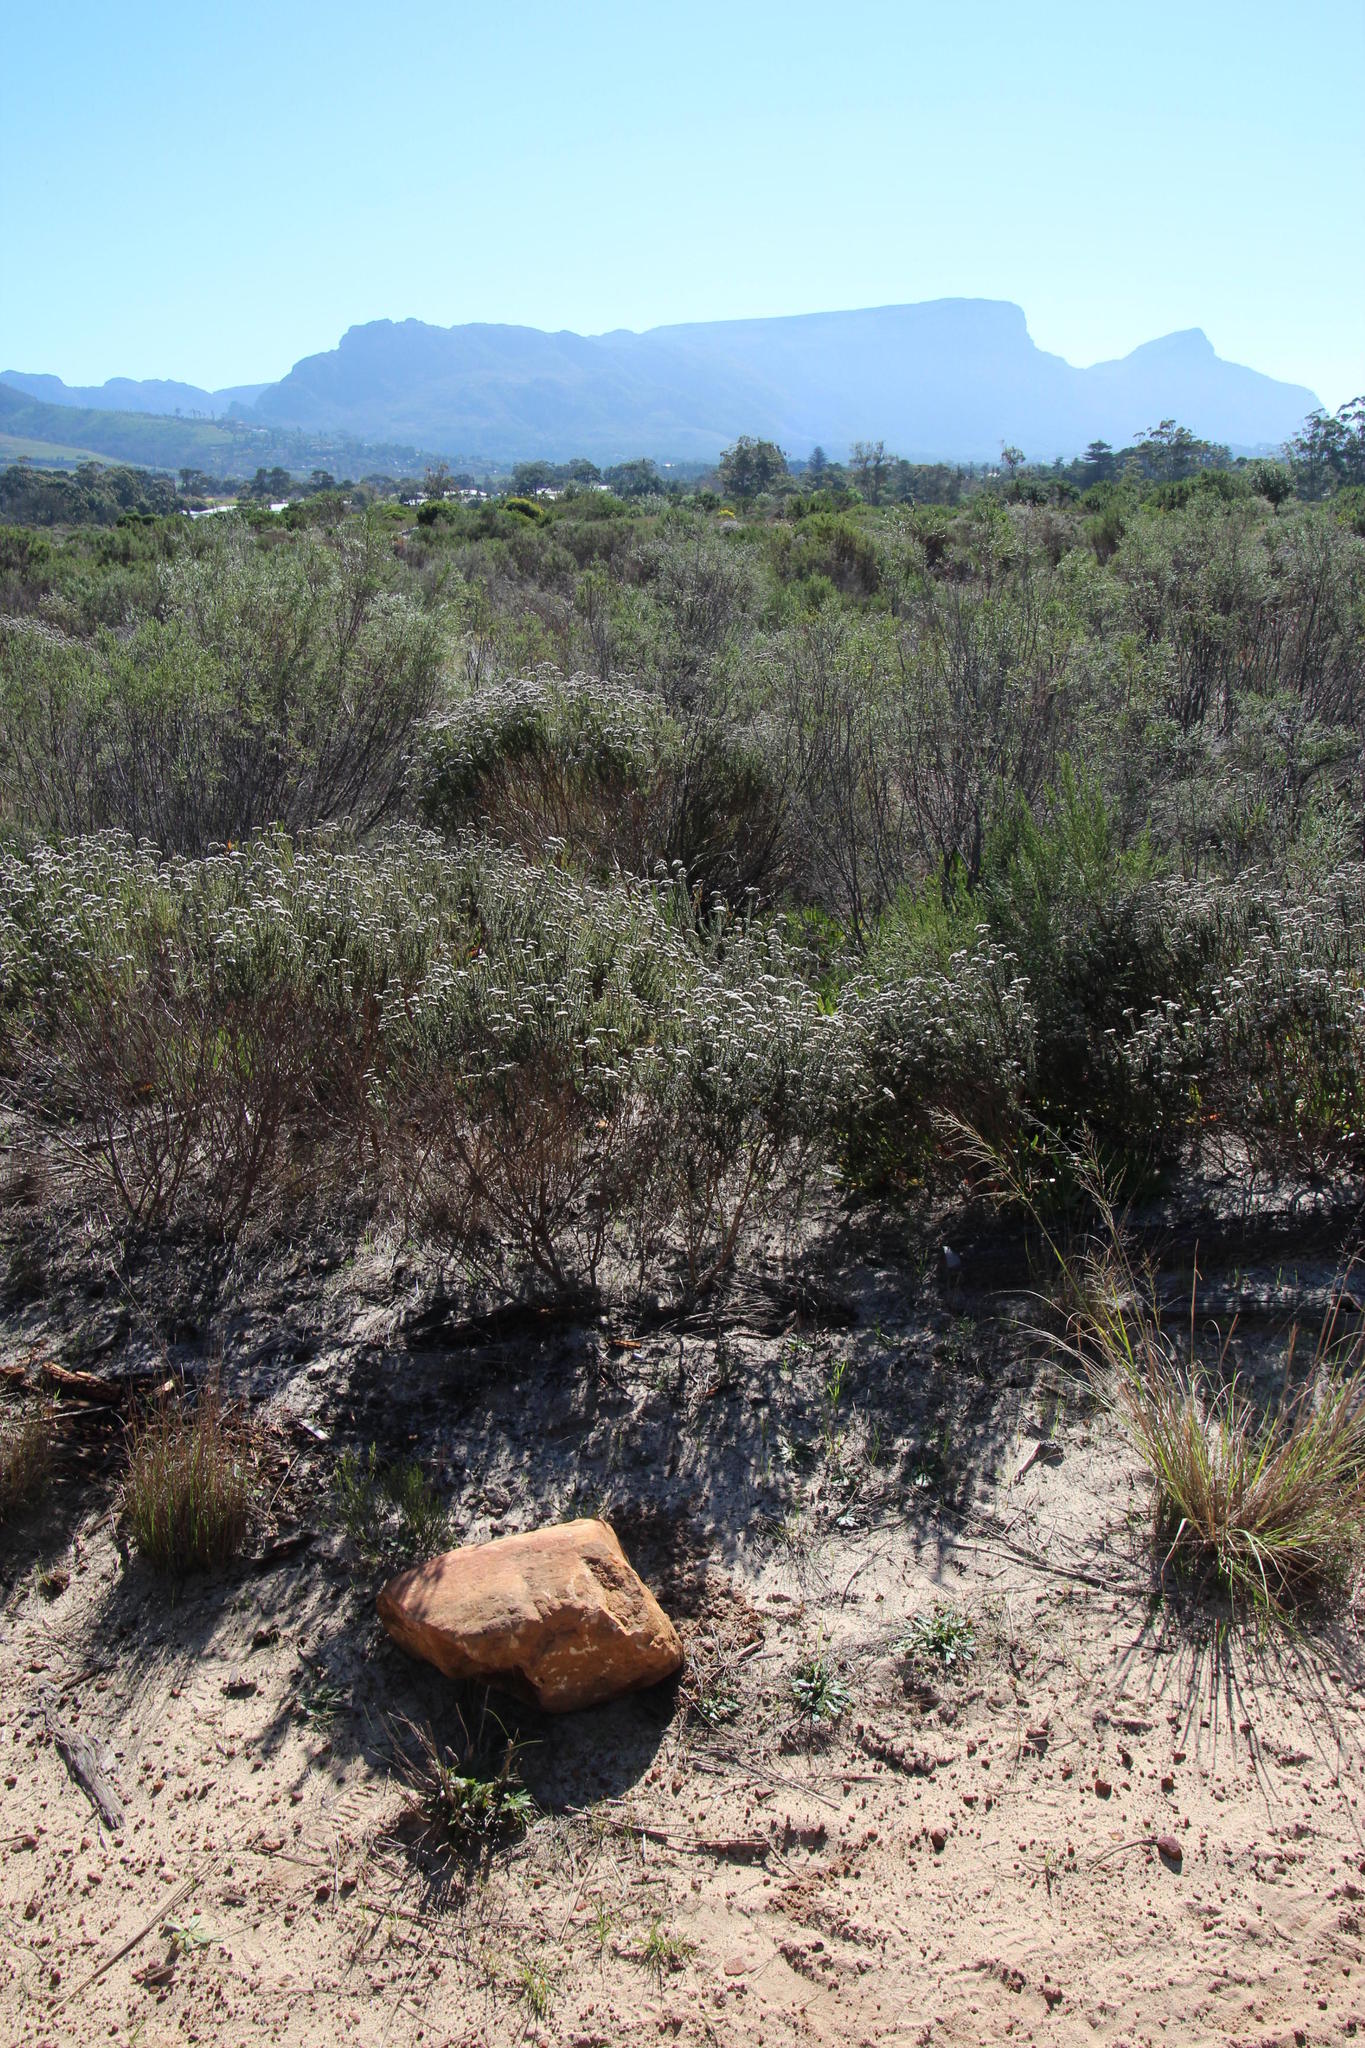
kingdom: Plantae
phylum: Tracheophyta
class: Magnoliopsida
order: Asterales
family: Asteraceae
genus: Metalasia
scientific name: Metalasia densa
